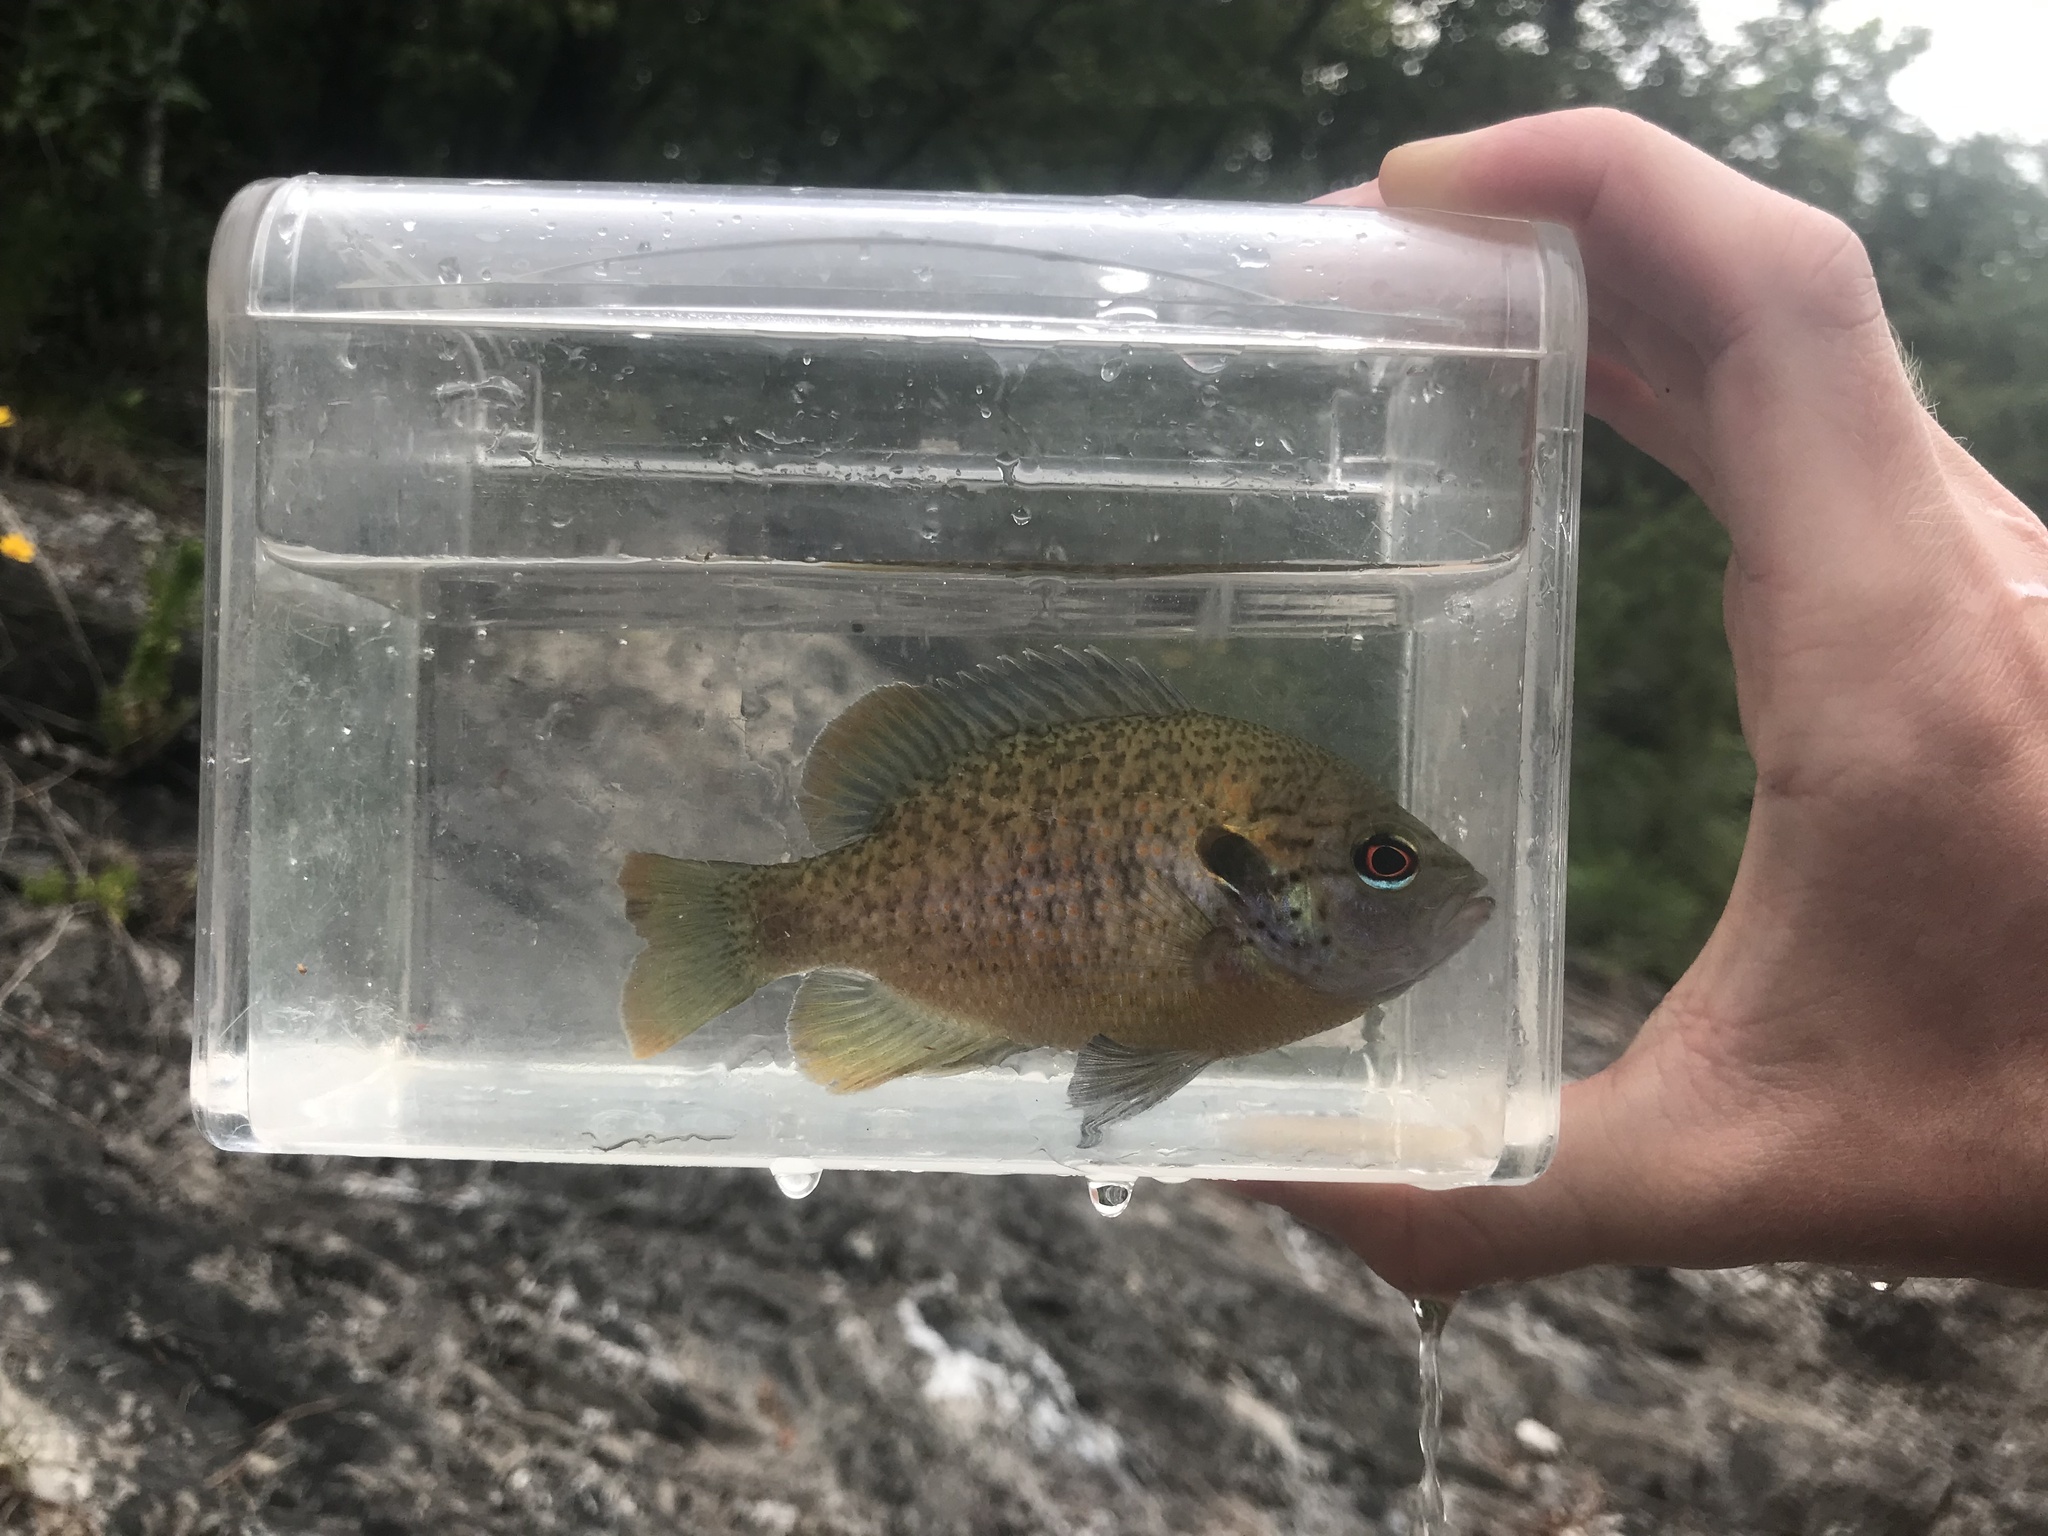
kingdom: Animalia
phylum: Chordata
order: Perciformes
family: Centrarchidae
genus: Lepomis
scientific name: Lepomis miniatus
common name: Redspotted sunfish
